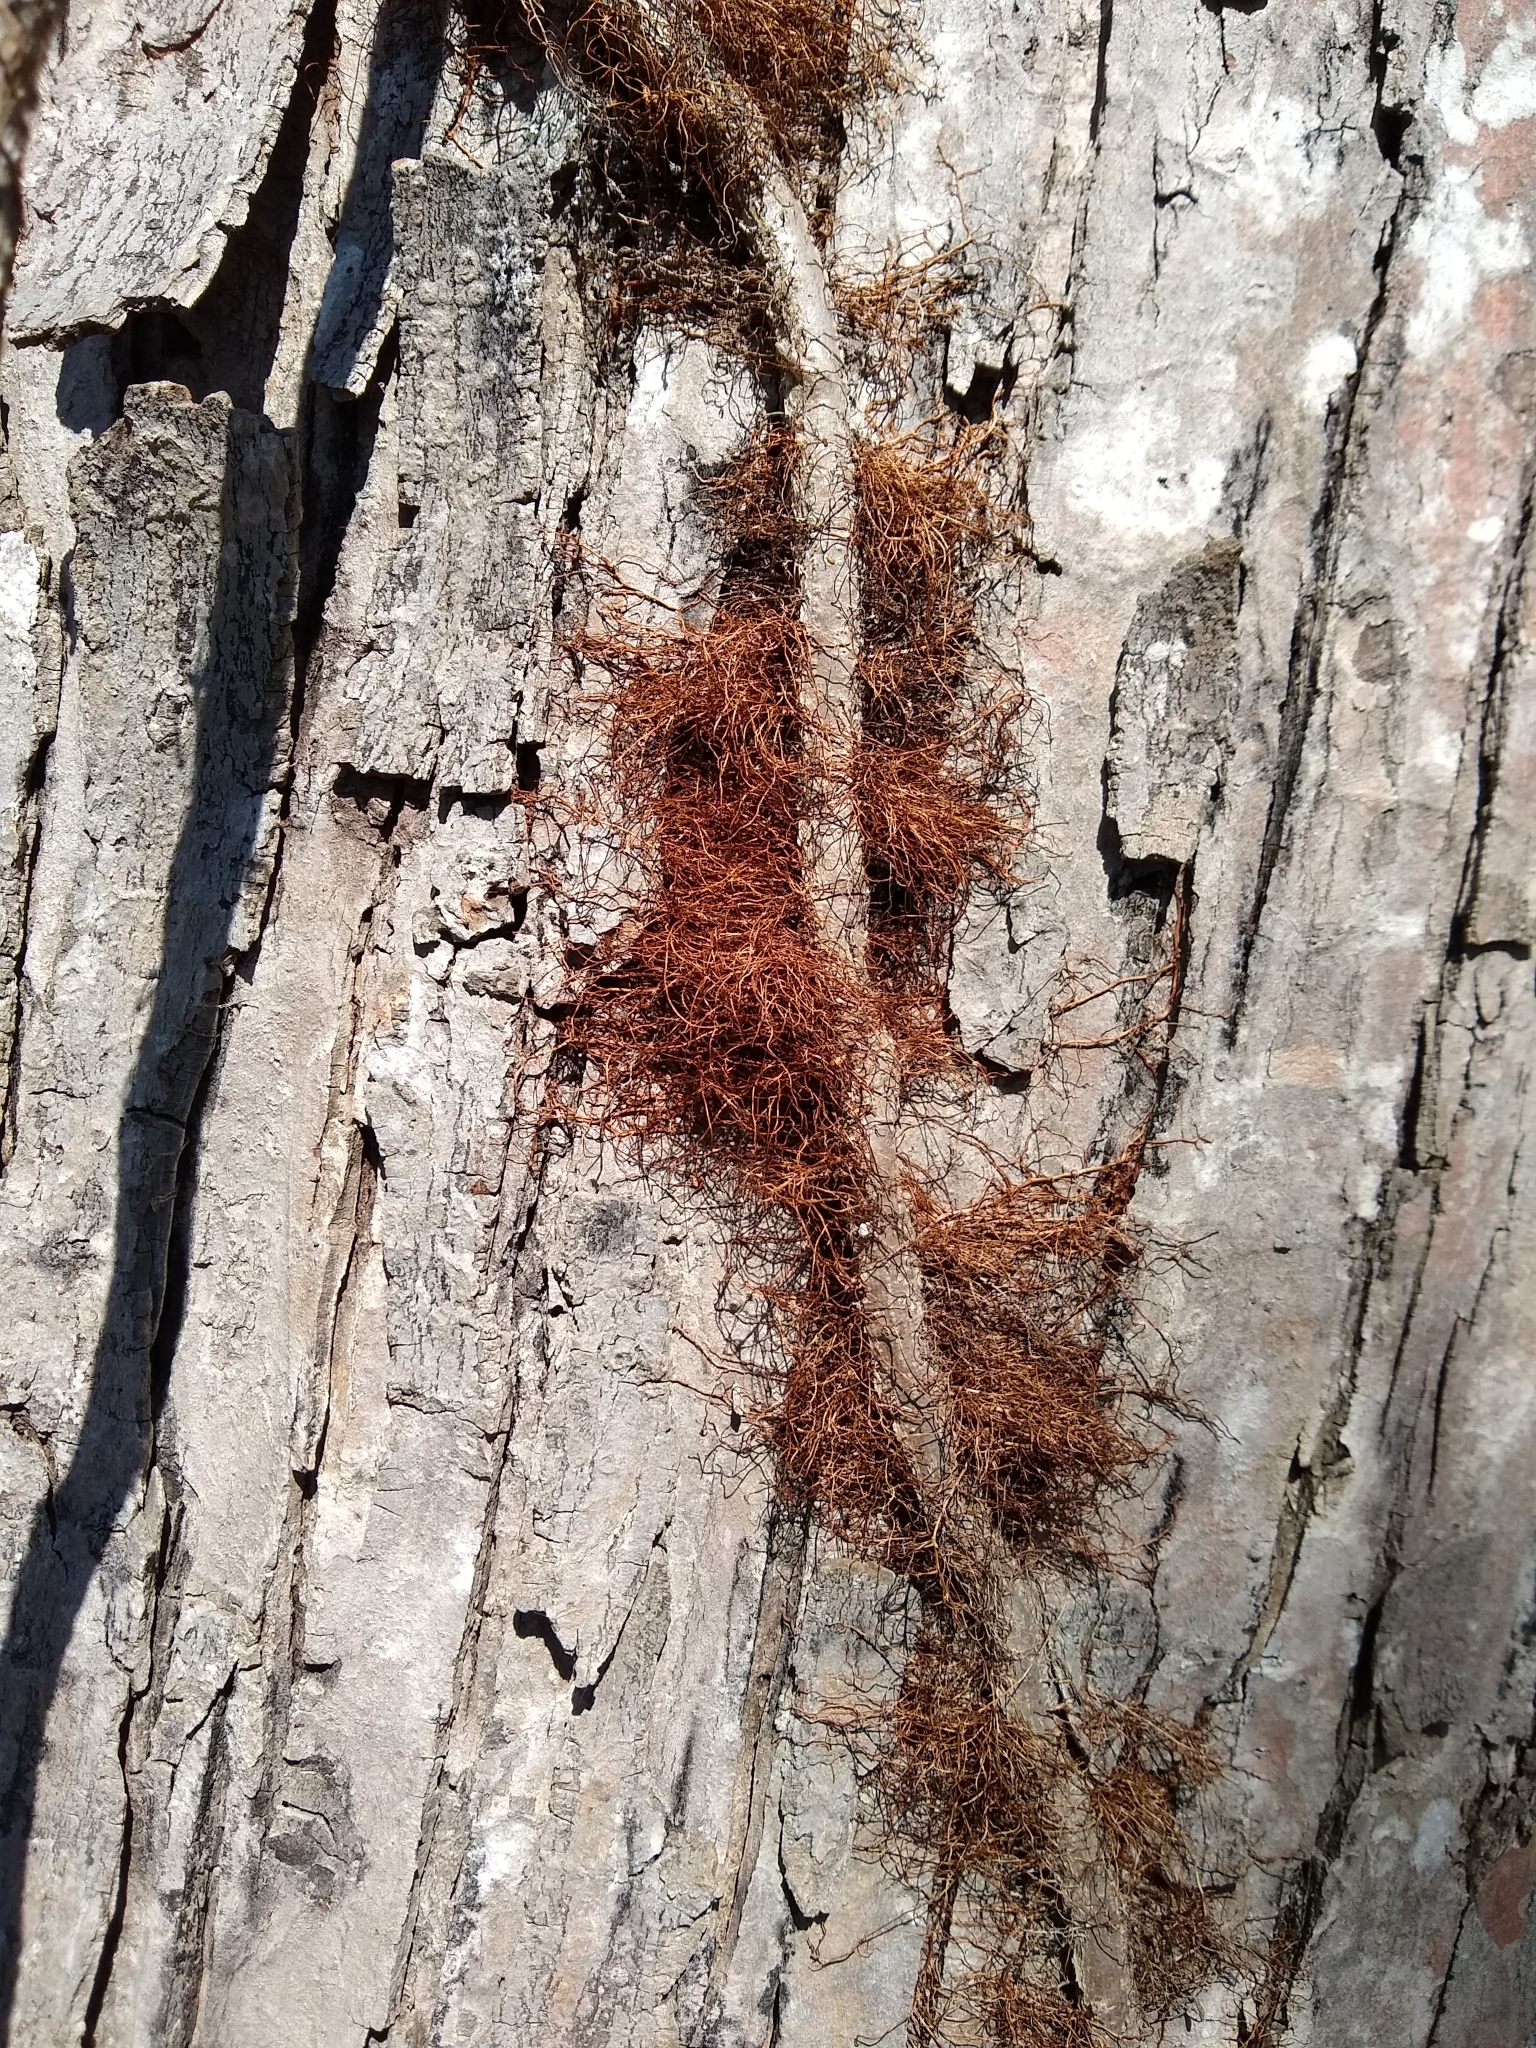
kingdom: Plantae
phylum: Tracheophyta
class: Magnoliopsida
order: Sapindales
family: Anacardiaceae
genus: Toxicodendron
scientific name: Toxicodendron radicans
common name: Poison ivy
